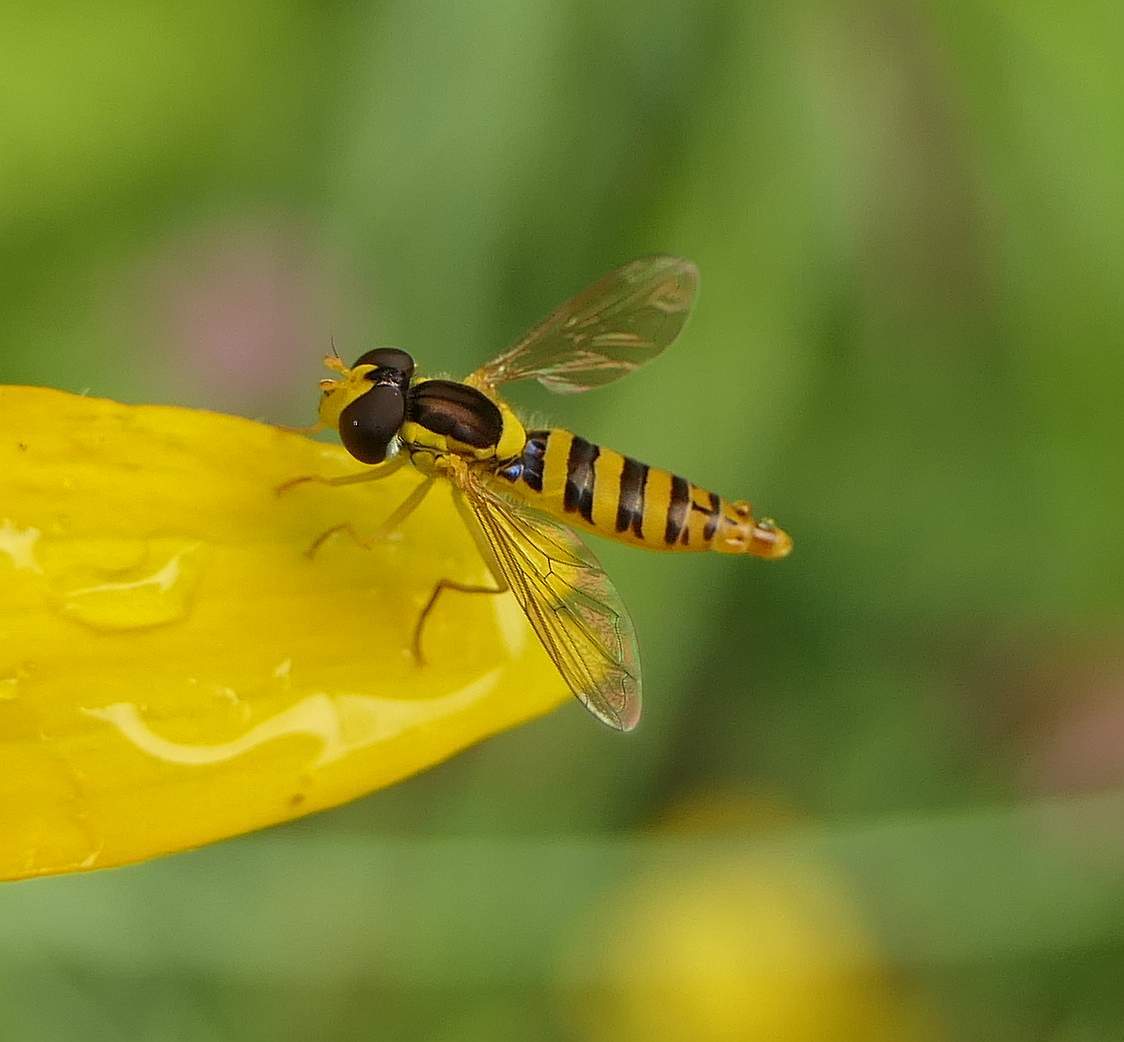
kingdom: Animalia
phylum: Arthropoda
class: Insecta
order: Diptera
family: Syrphidae
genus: Sphaerophoria
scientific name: Sphaerophoria
